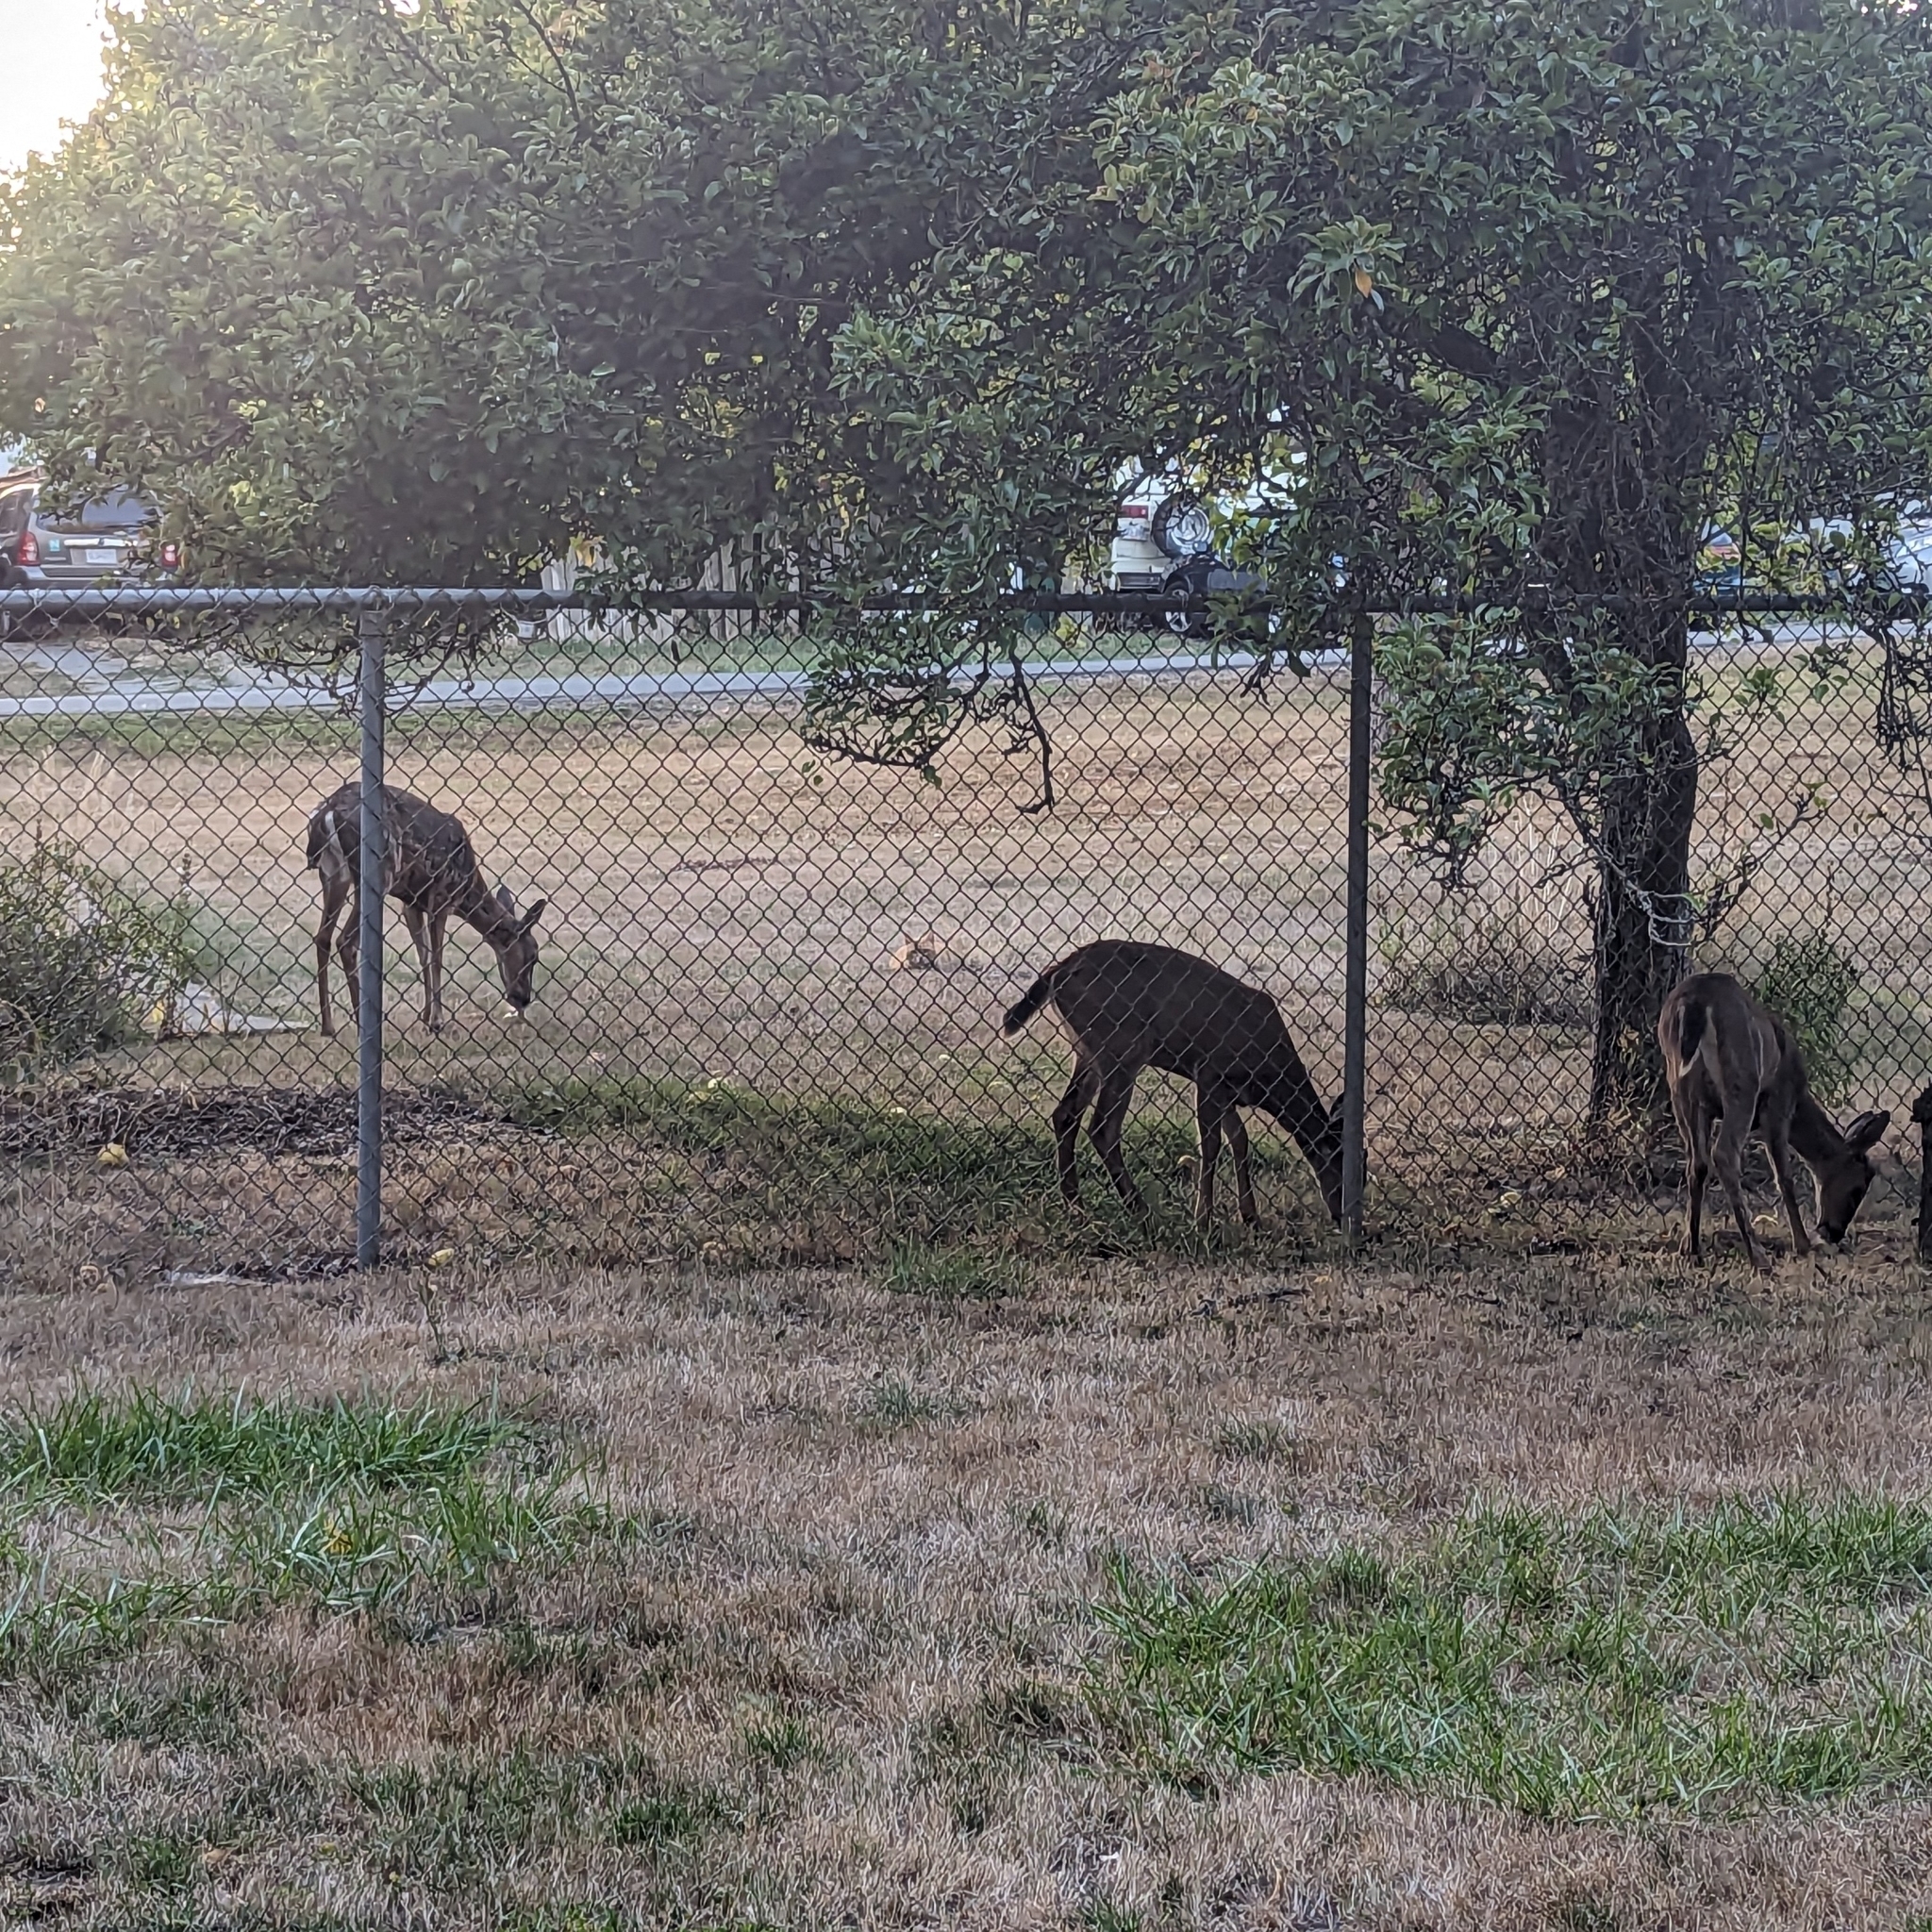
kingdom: Animalia
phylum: Chordata
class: Mammalia
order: Carnivora
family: Felidae
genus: Felis
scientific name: Felis catus
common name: Domestic cat
